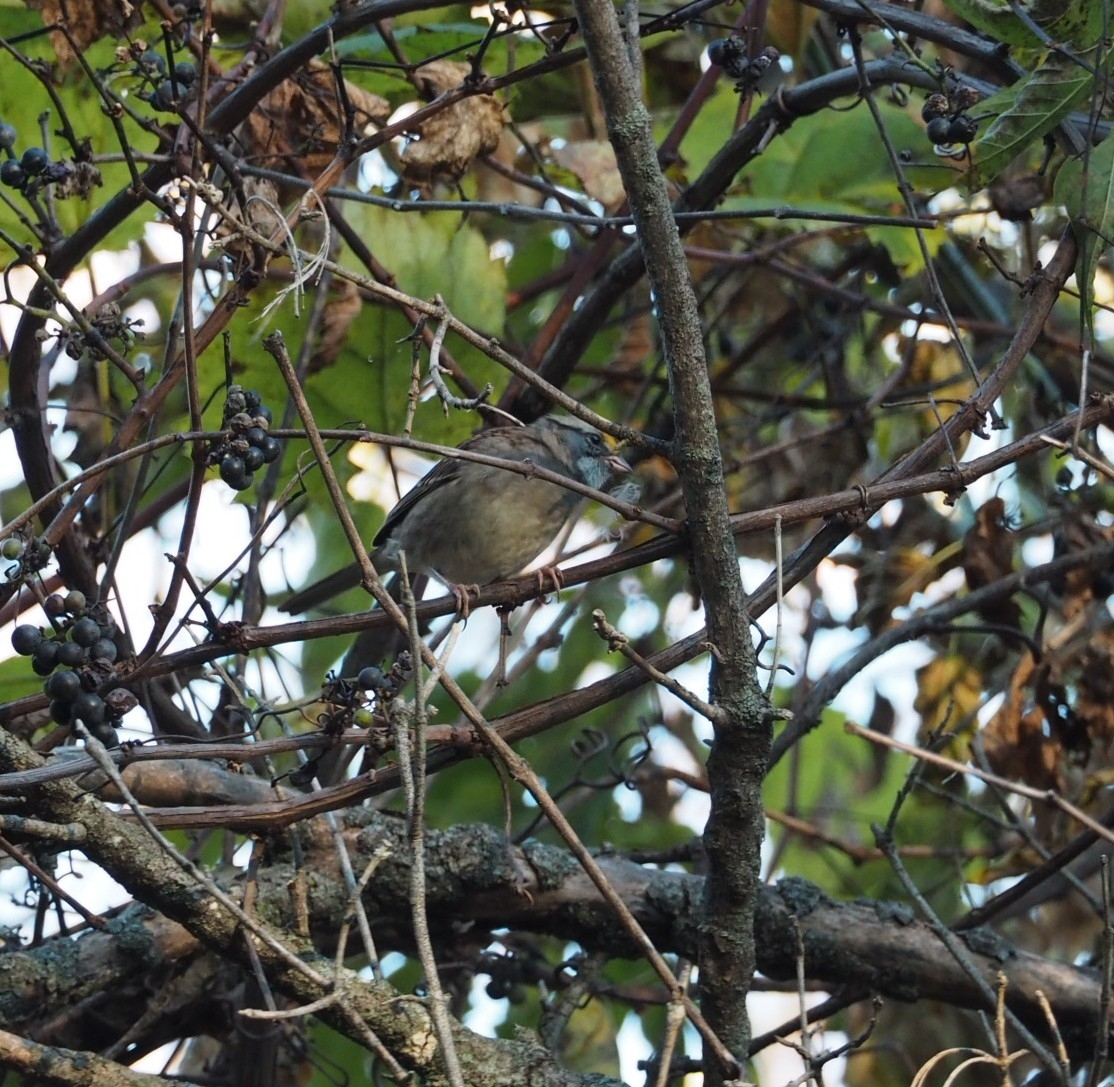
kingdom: Animalia
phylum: Chordata
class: Aves
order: Passeriformes
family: Passerellidae
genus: Zonotrichia
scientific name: Zonotrichia albicollis
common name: White-throated sparrow
